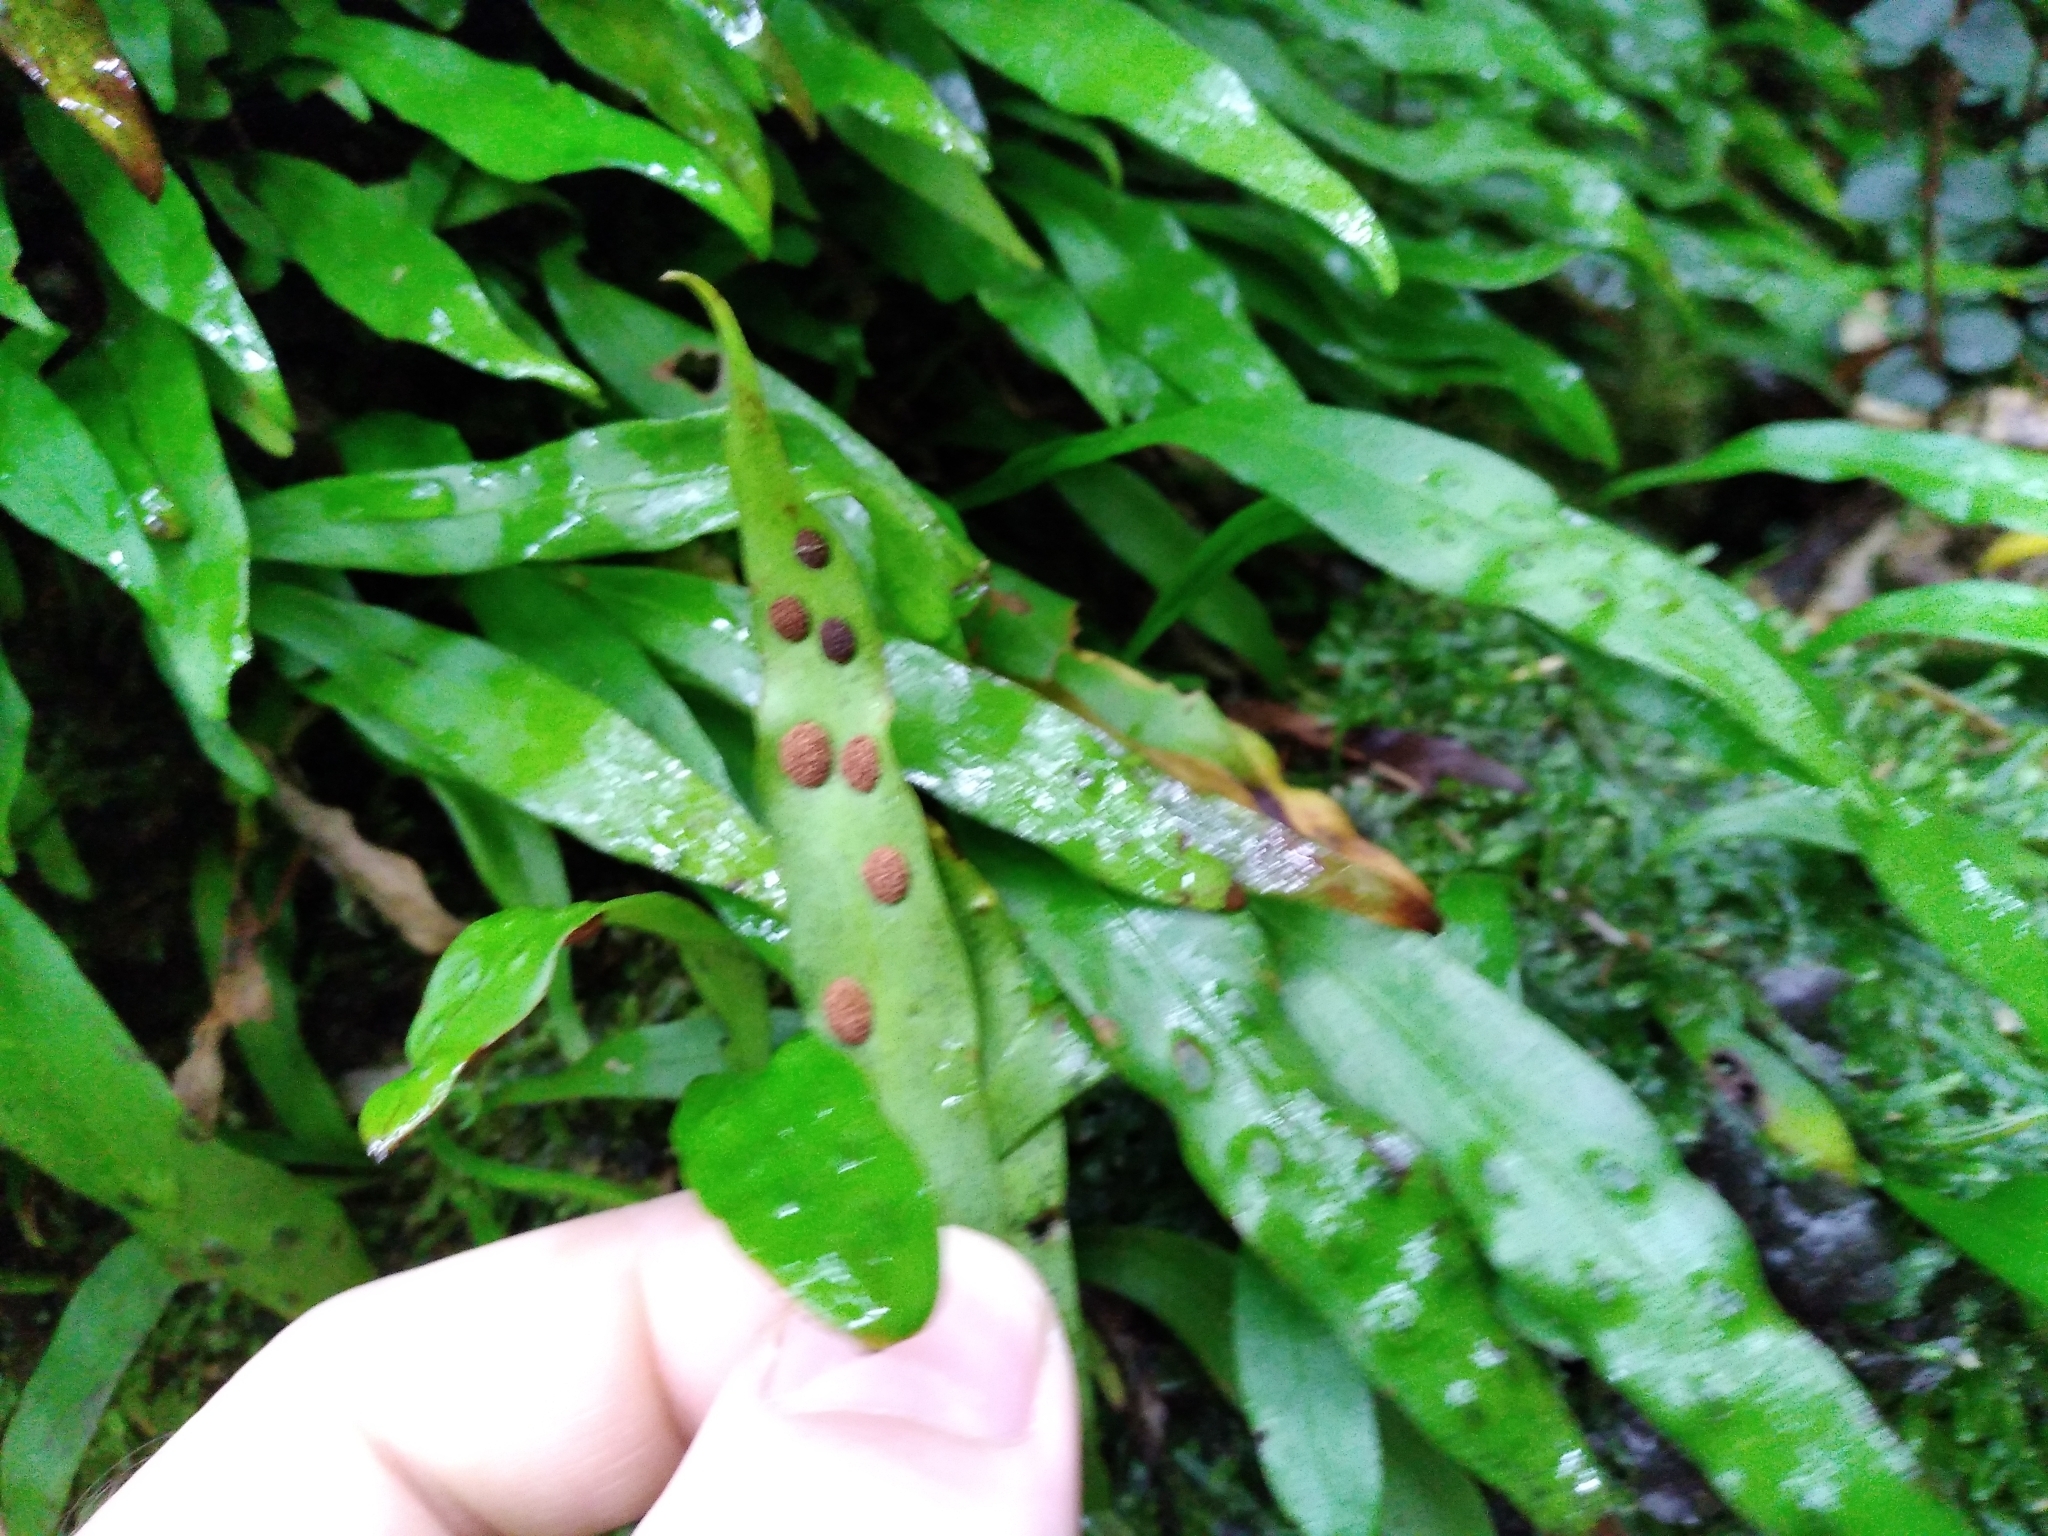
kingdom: Plantae
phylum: Tracheophyta
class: Polypodiopsida
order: Polypodiales
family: Polypodiaceae
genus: Loxogramme
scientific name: Loxogramme dictyopteris
